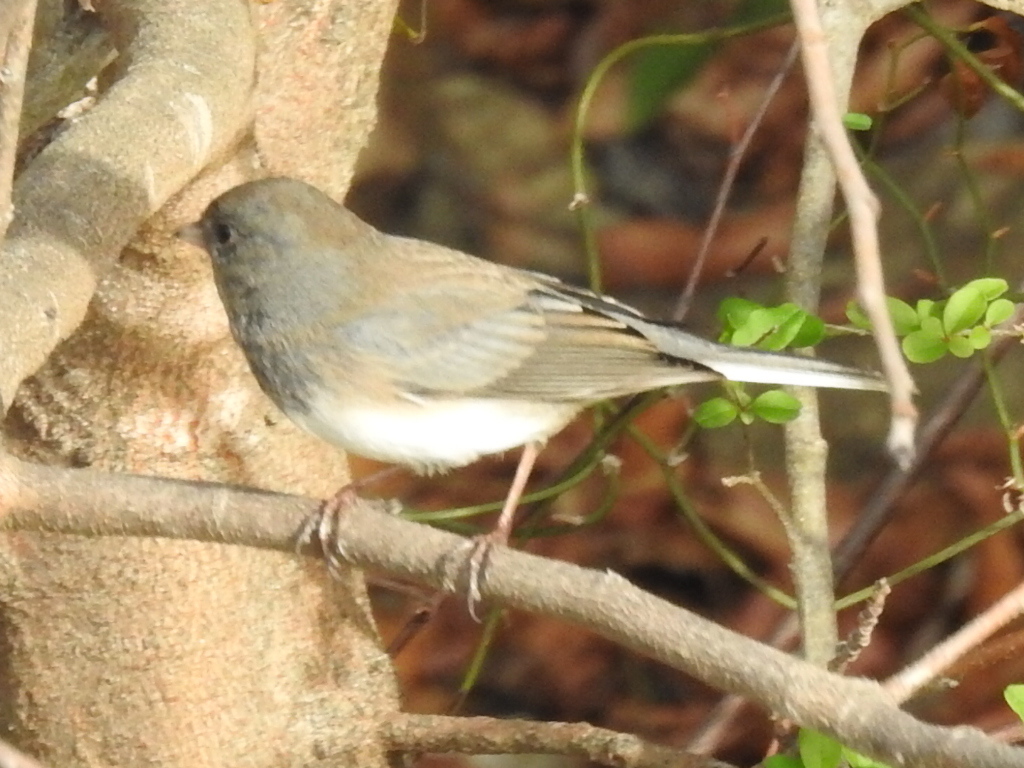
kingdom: Animalia
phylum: Chordata
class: Aves
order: Passeriformes
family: Passerellidae
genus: Junco
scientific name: Junco hyemalis
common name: Dark-eyed junco
